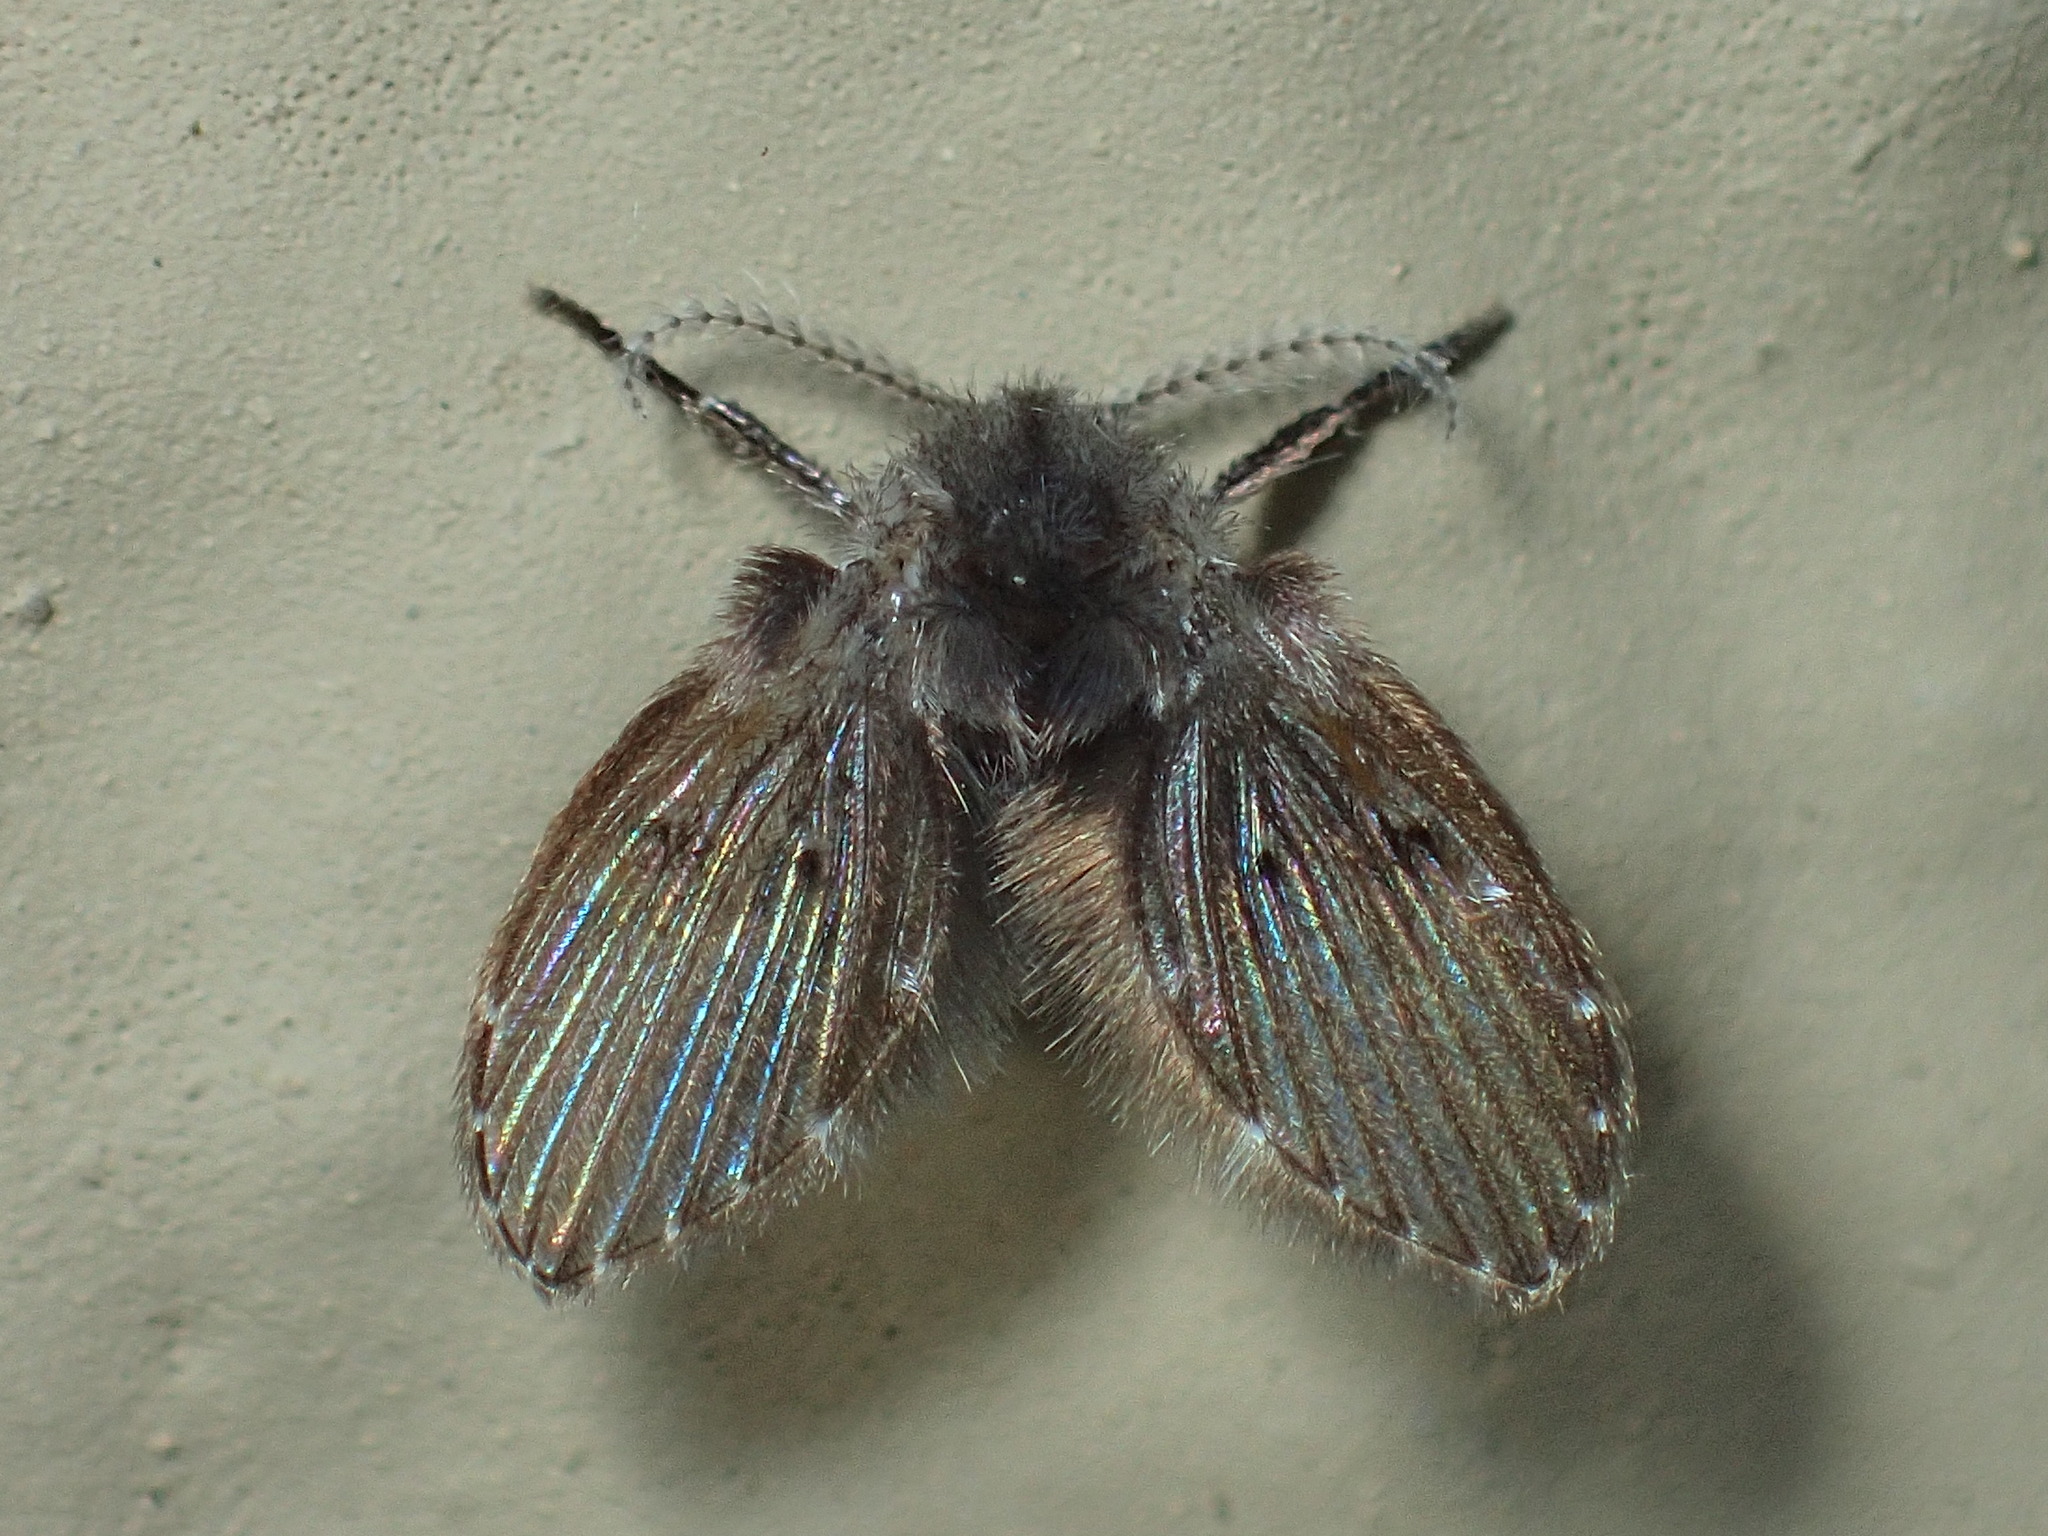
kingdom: Animalia
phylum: Arthropoda
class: Insecta
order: Diptera
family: Psychodidae
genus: Clogmia
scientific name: Clogmia albipunctatus
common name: White-spotted moth fly
